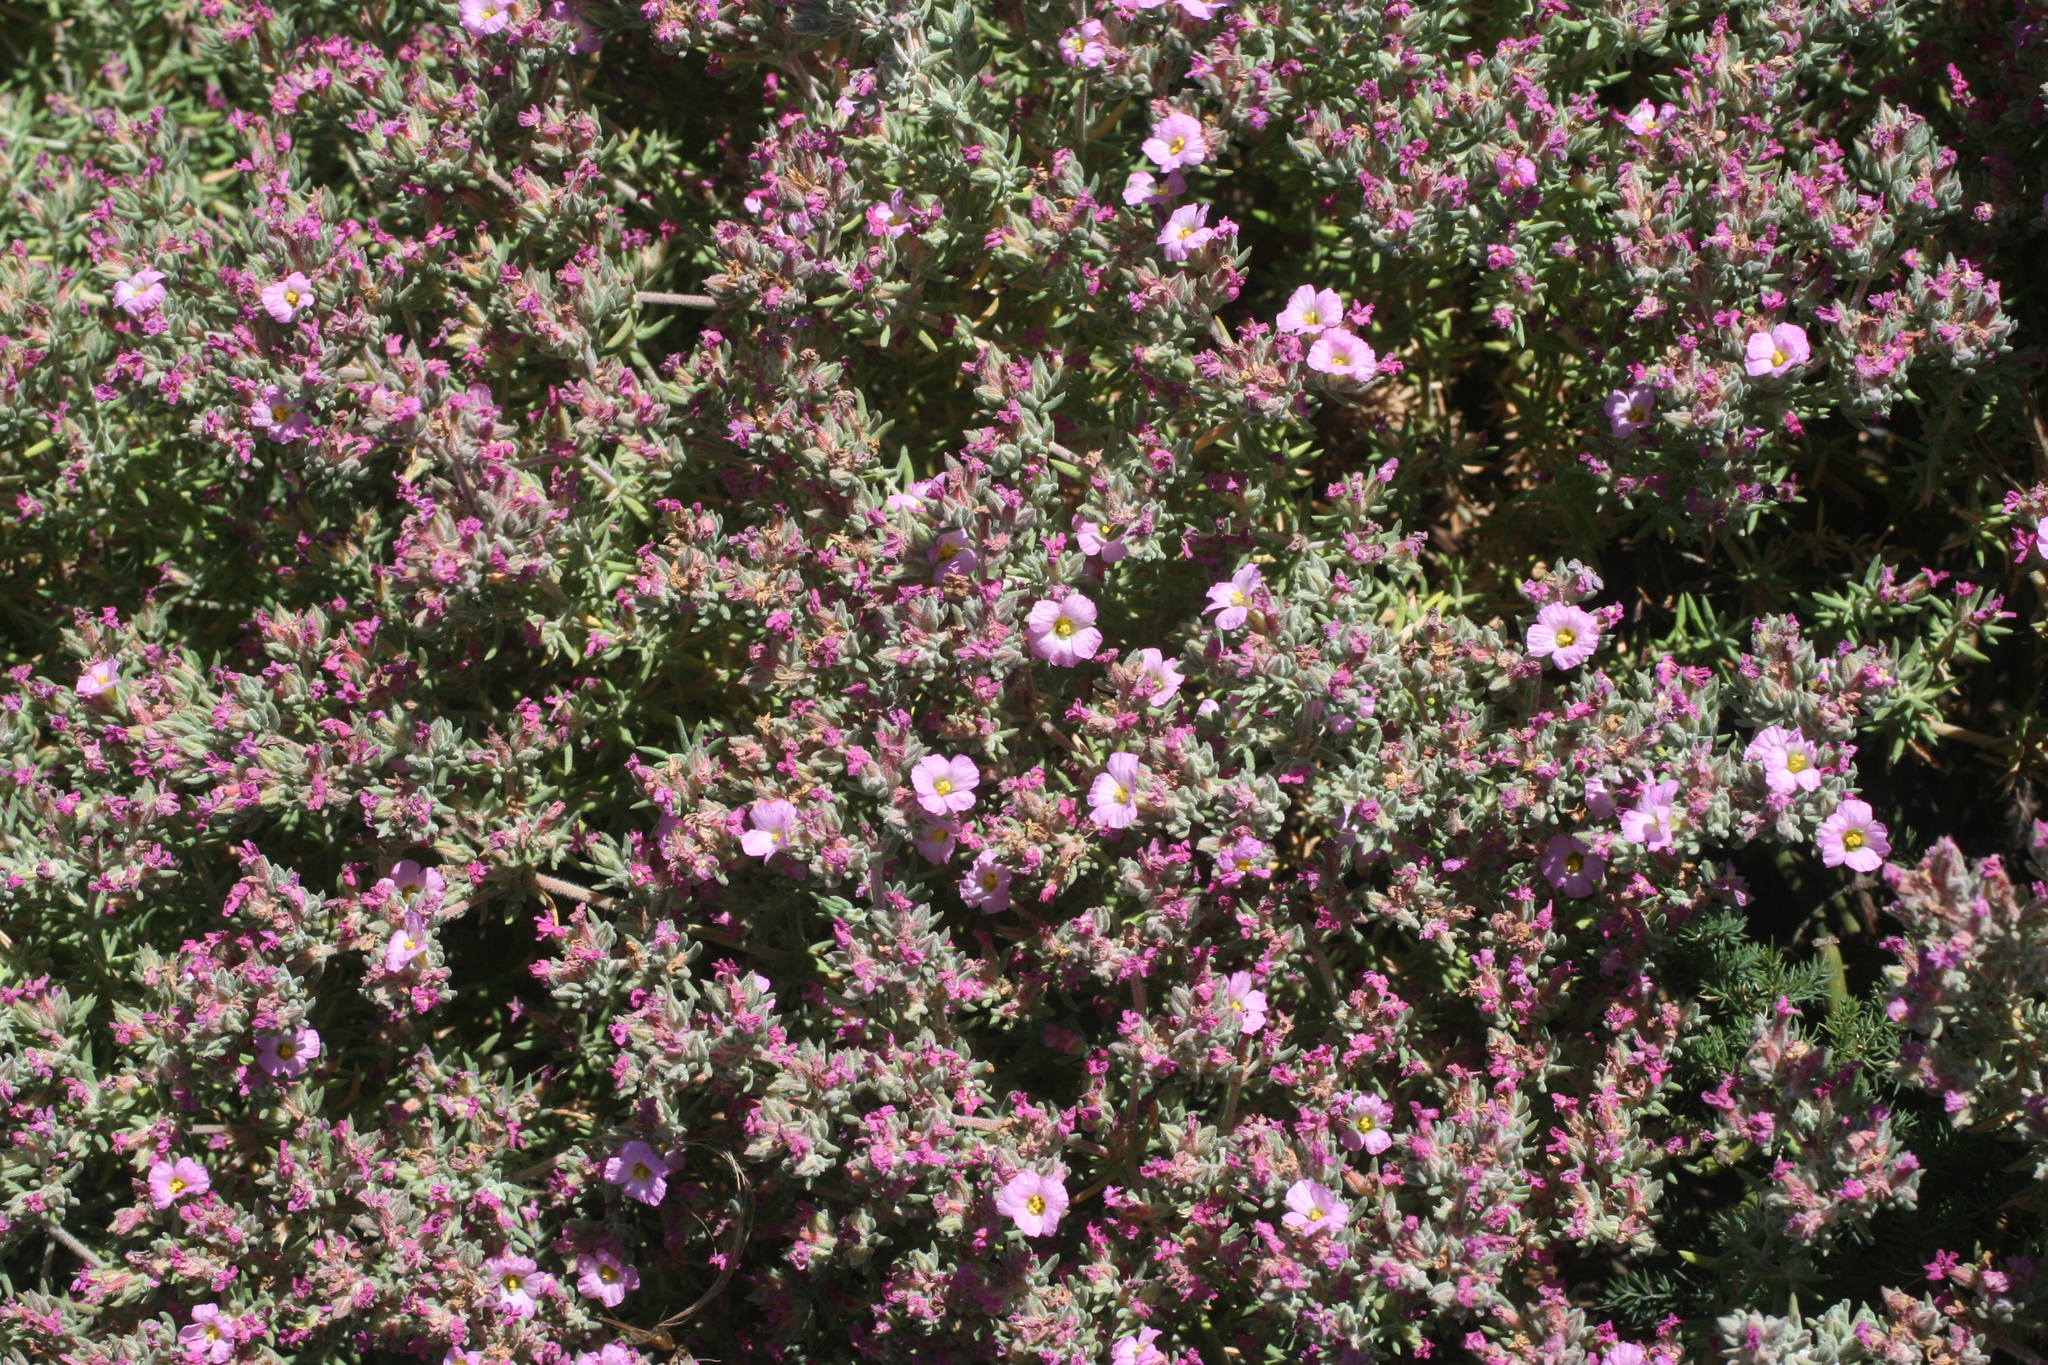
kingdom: Plantae
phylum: Tracheophyta
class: Magnoliopsida
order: Caryophyllales
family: Frankeniaceae
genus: Frankenia
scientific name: Frankenia corymbosa
